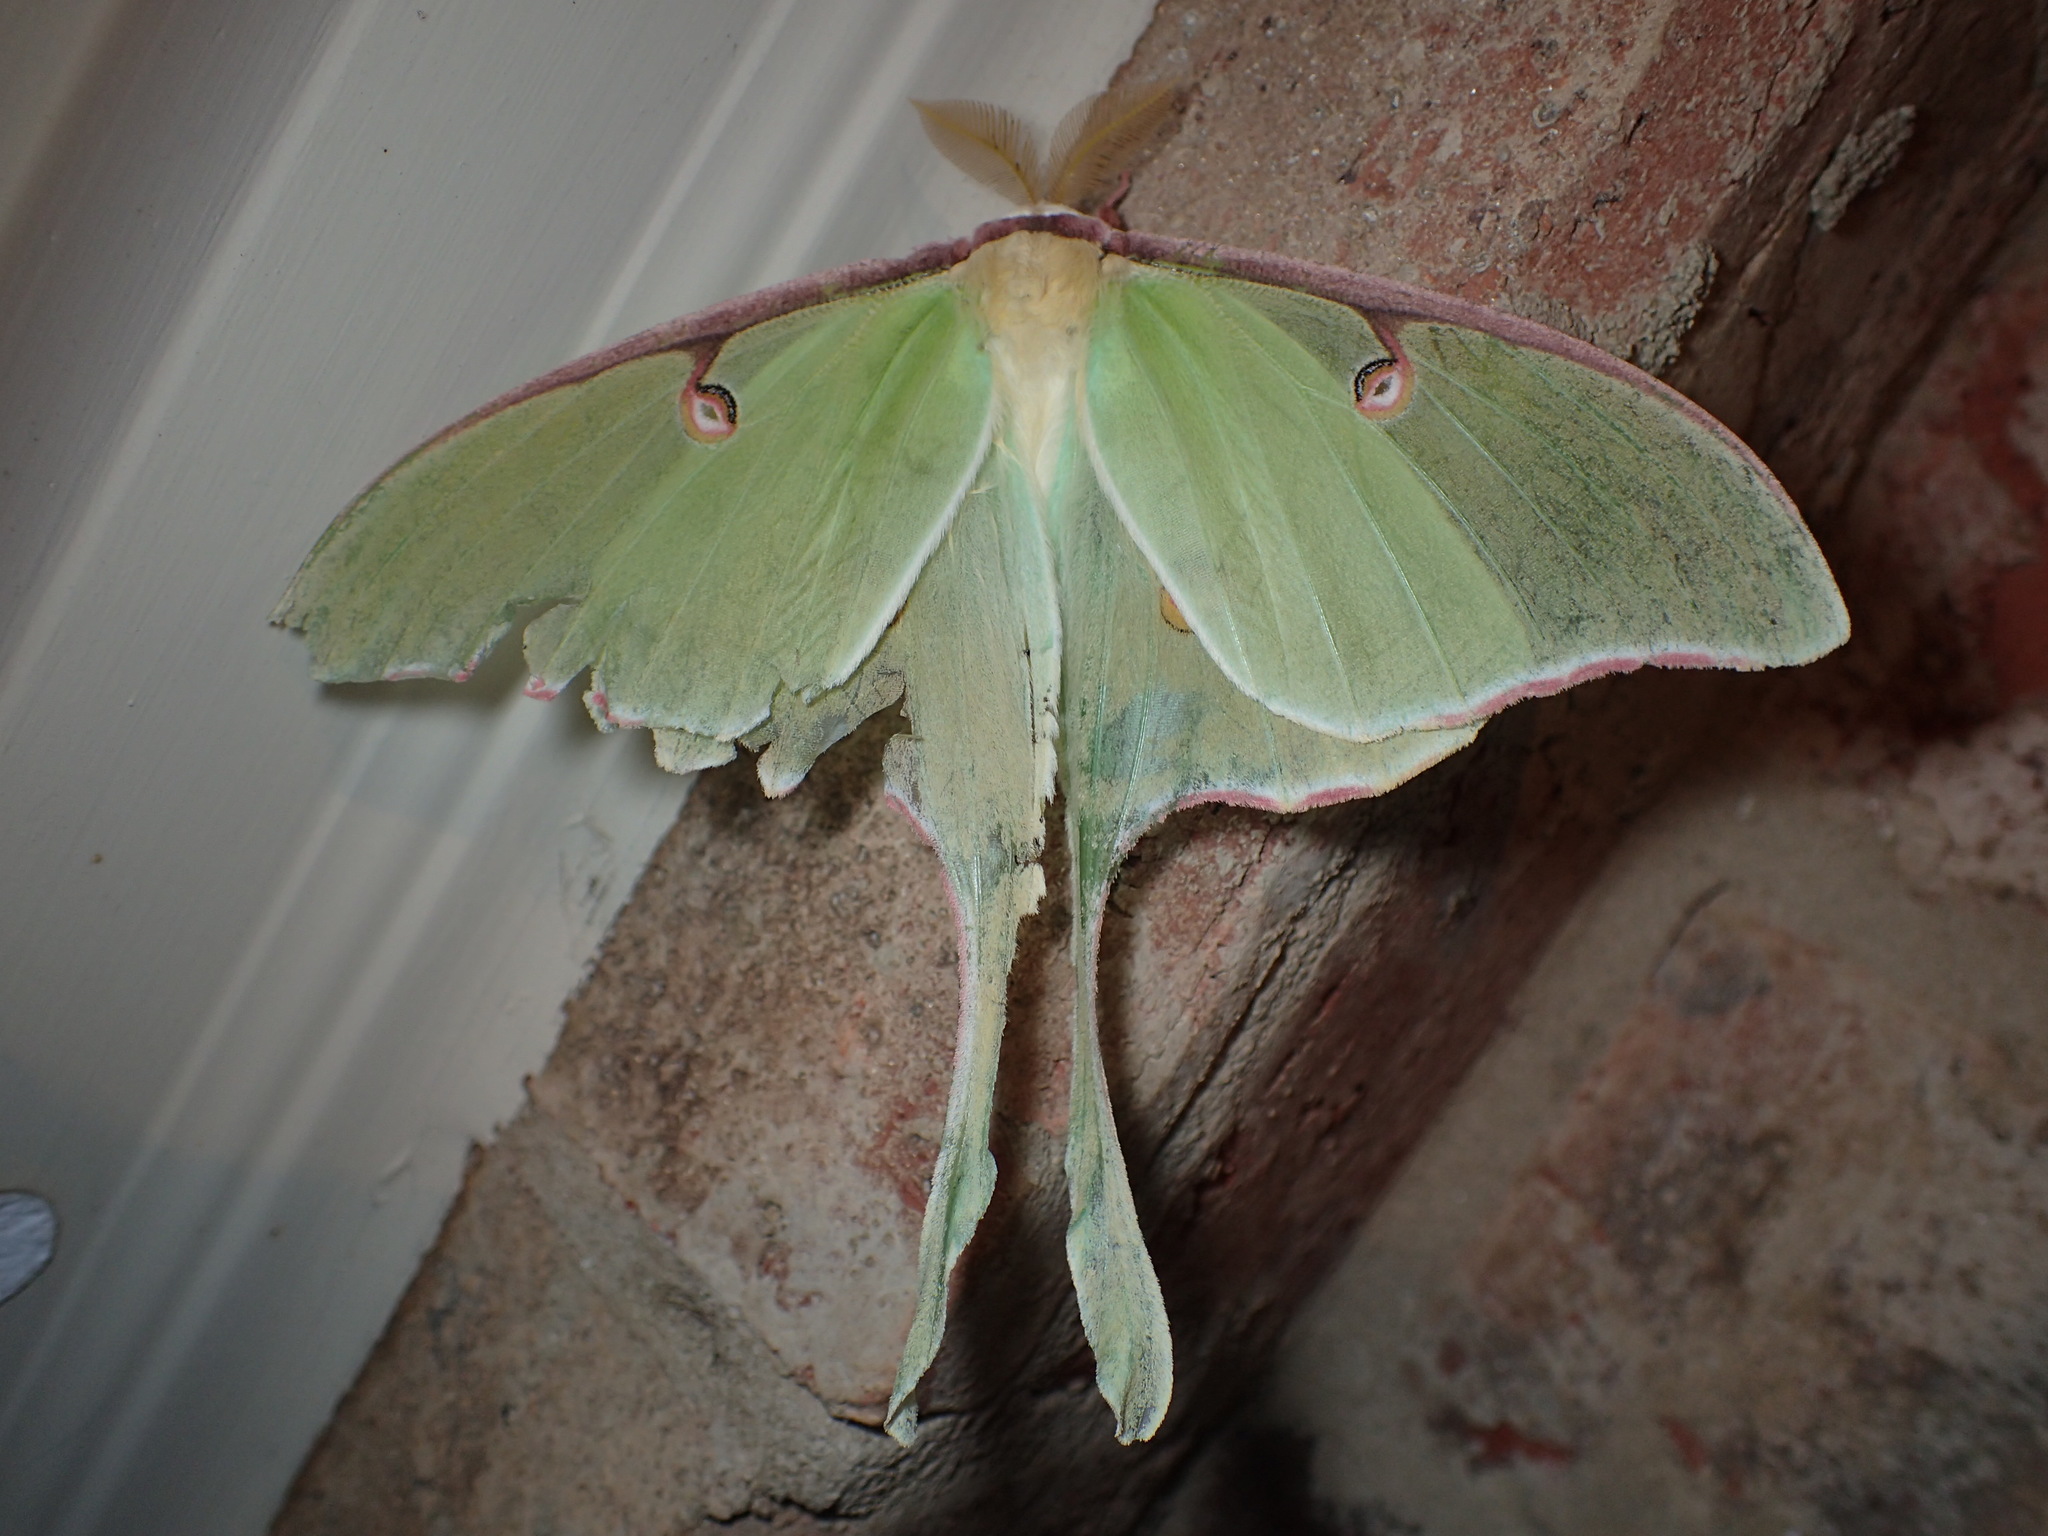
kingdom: Animalia
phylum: Arthropoda
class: Insecta
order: Lepidoptera
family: Saturniidae
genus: Actias
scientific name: Actias luna
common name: Luna moth
